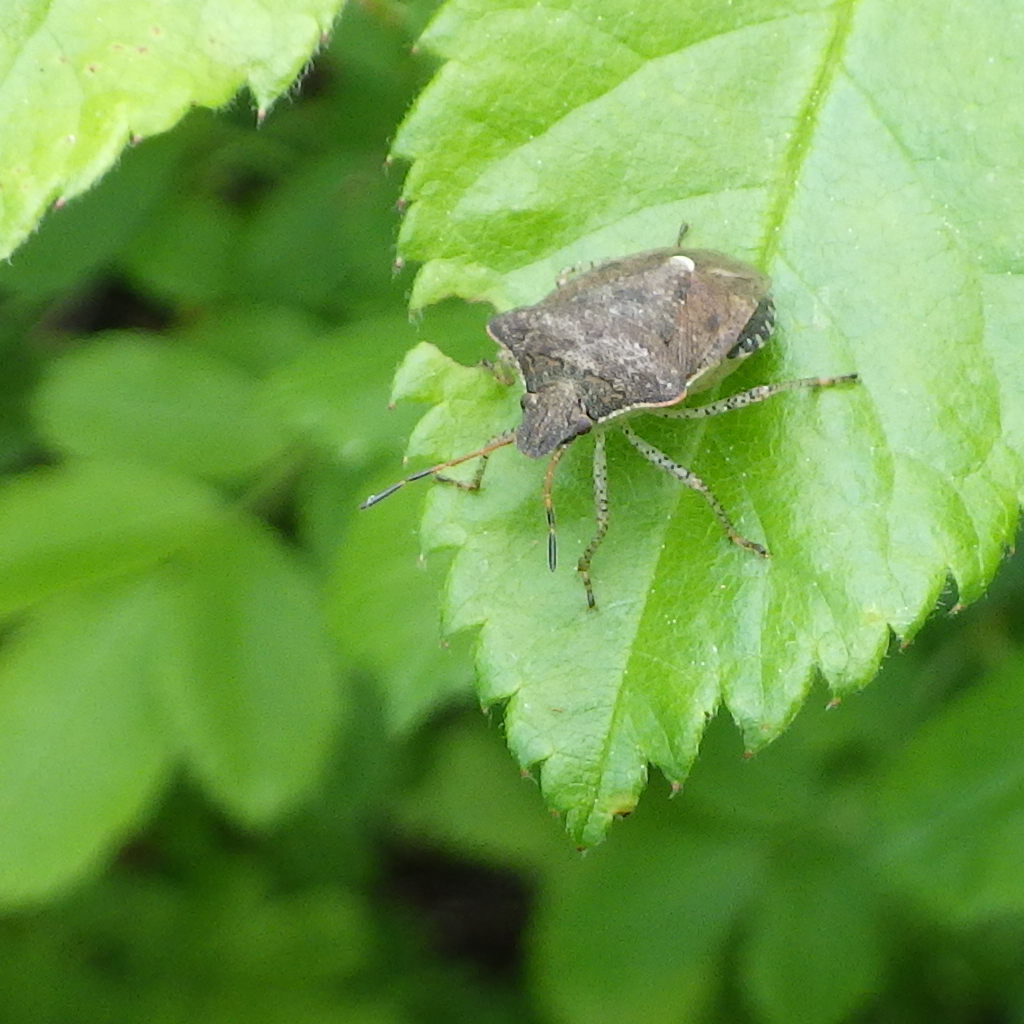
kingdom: Animalia
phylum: Arthropoda
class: Insecta
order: Hemiptera
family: Pentatomidae
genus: Euschistus
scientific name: Euschistus tristigmus
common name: Dusky stink bug
